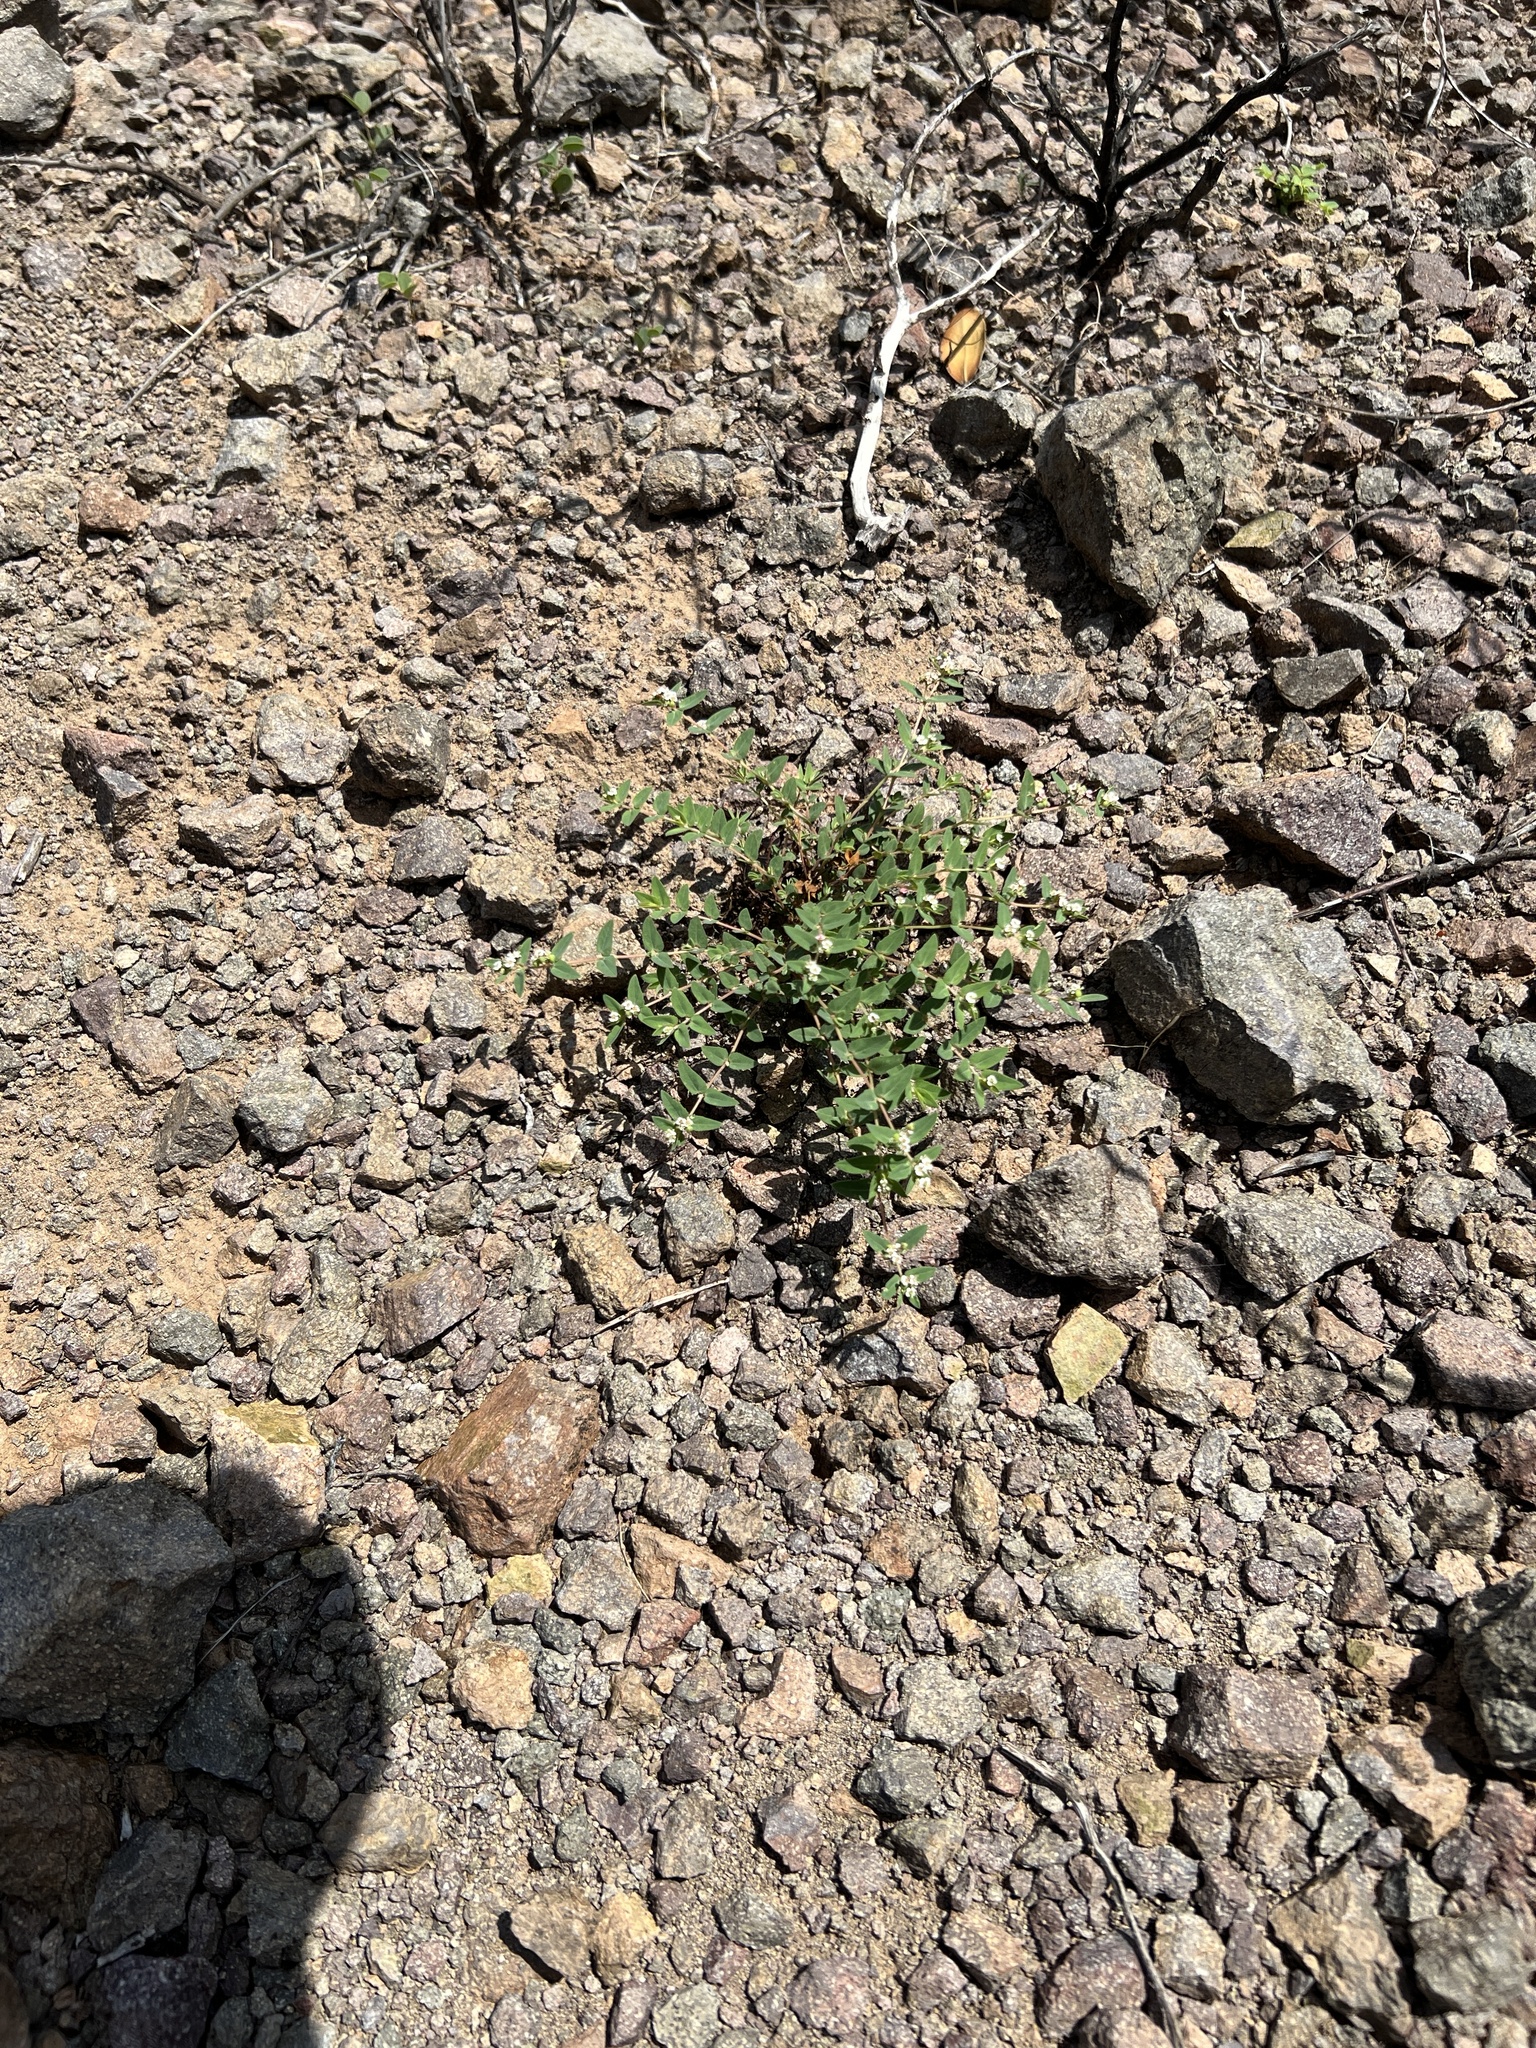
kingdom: Plantae
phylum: Tracheophyta
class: Magnoliopsida
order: Malpighiales
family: Euphorbiaceae
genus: Euphorbia
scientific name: Euphorbia capitellata
